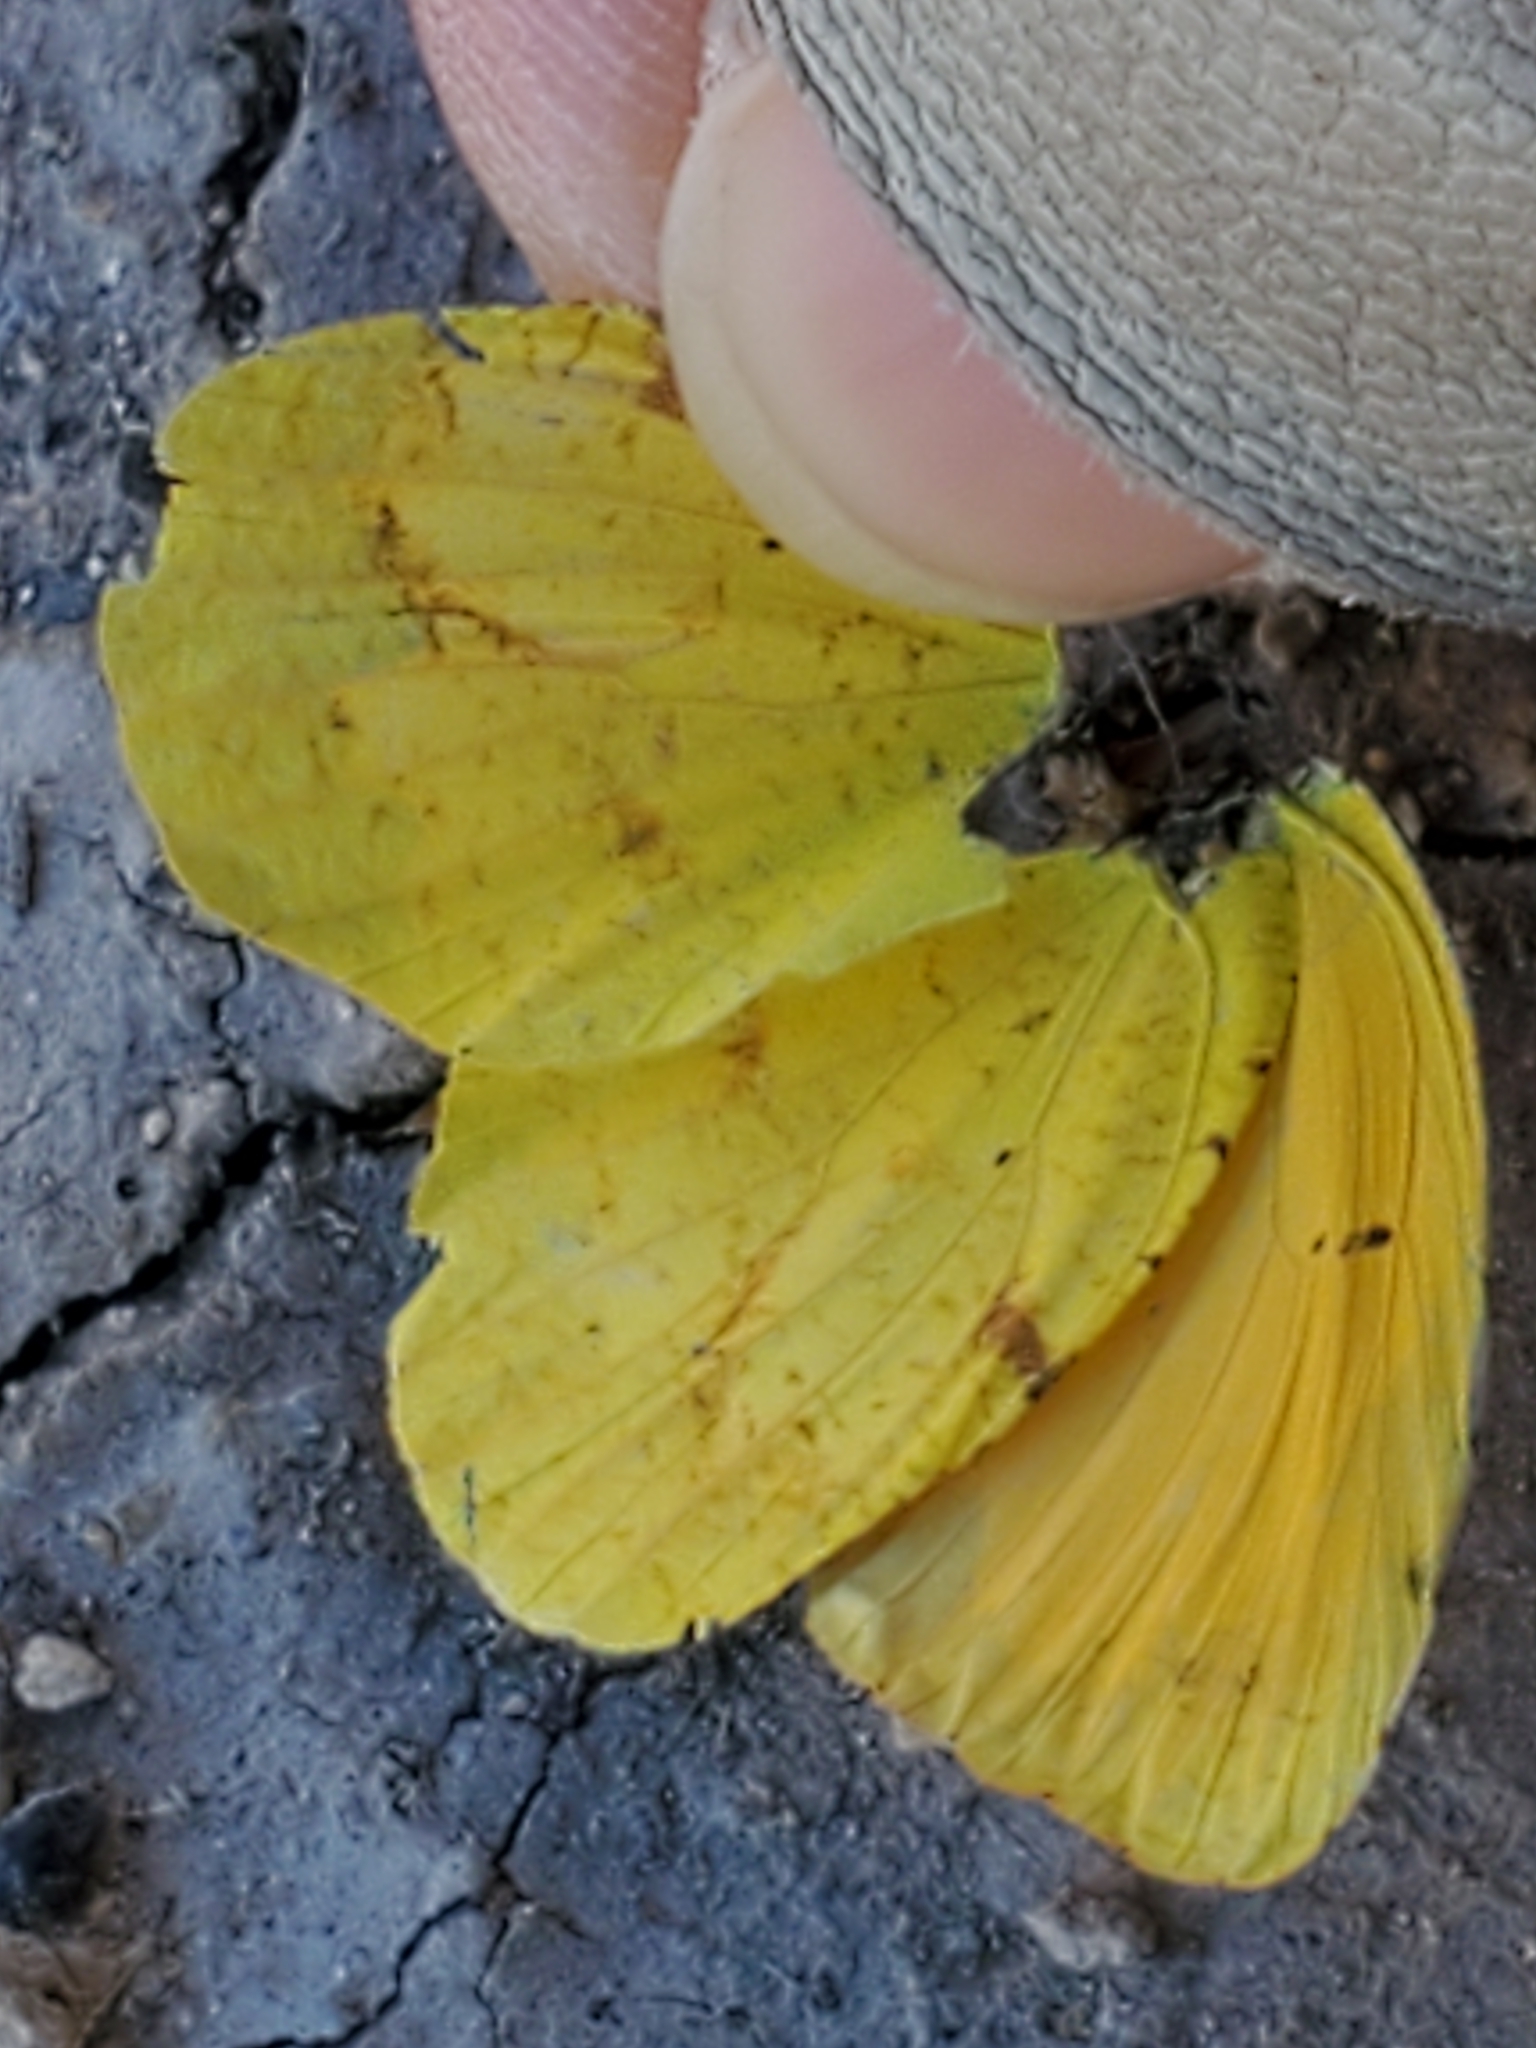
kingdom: Animalia
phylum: Arthropoda
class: Insecta
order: Lepidoptera
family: Pieridae
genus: Abaeis
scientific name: Abaeis nicippe
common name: Sleepy orange
